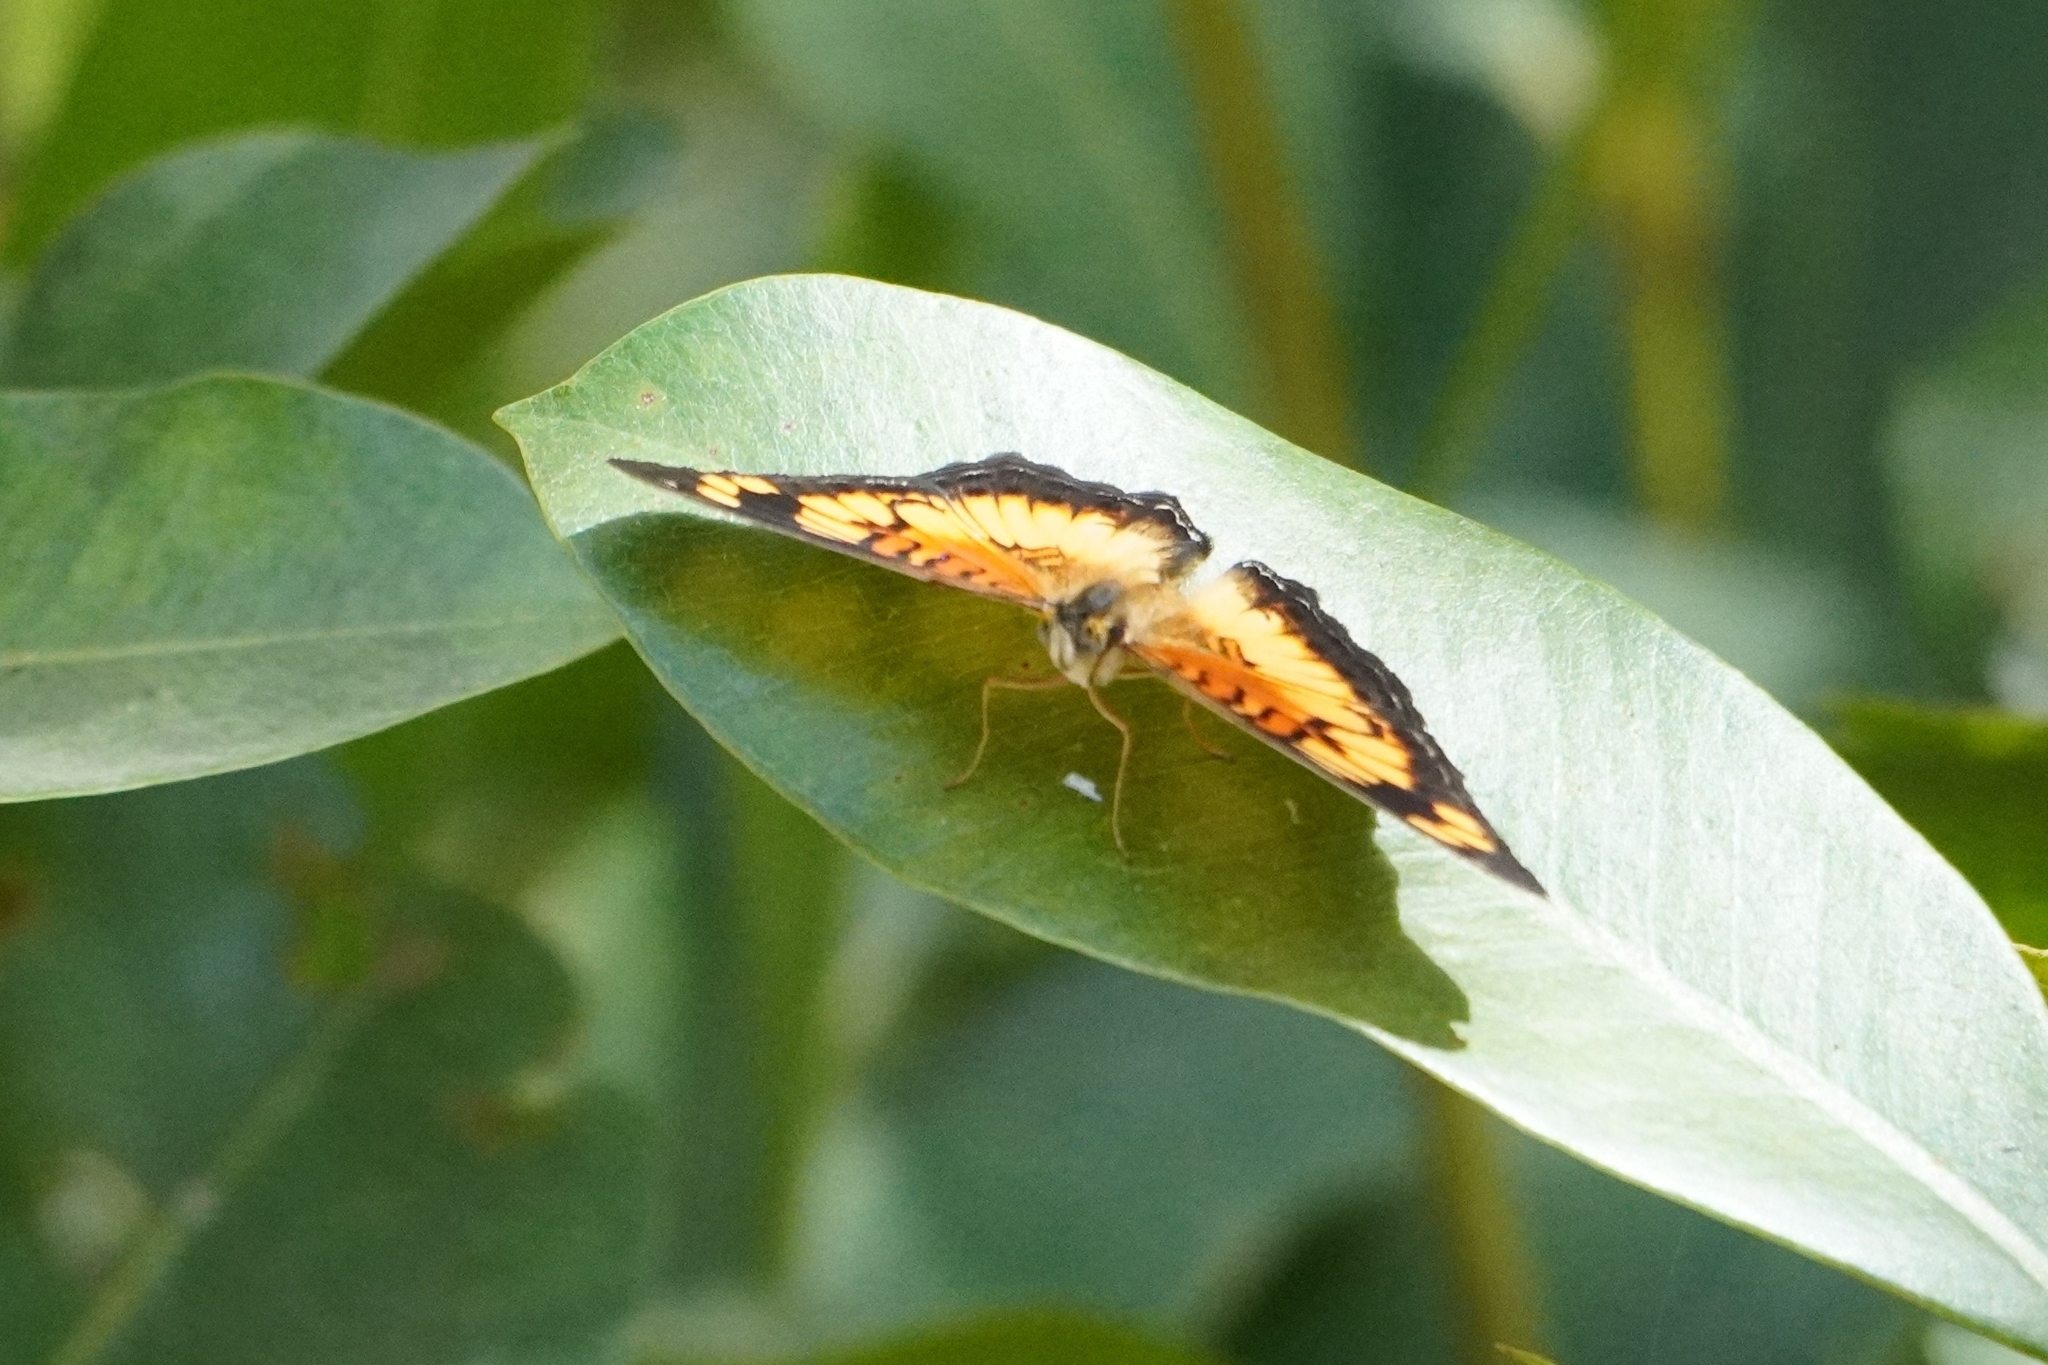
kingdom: Animalia
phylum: Arthropoda
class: Insecta
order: Lepidoptera
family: Nymphalidae
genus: Junonia
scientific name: Junonia sophia
